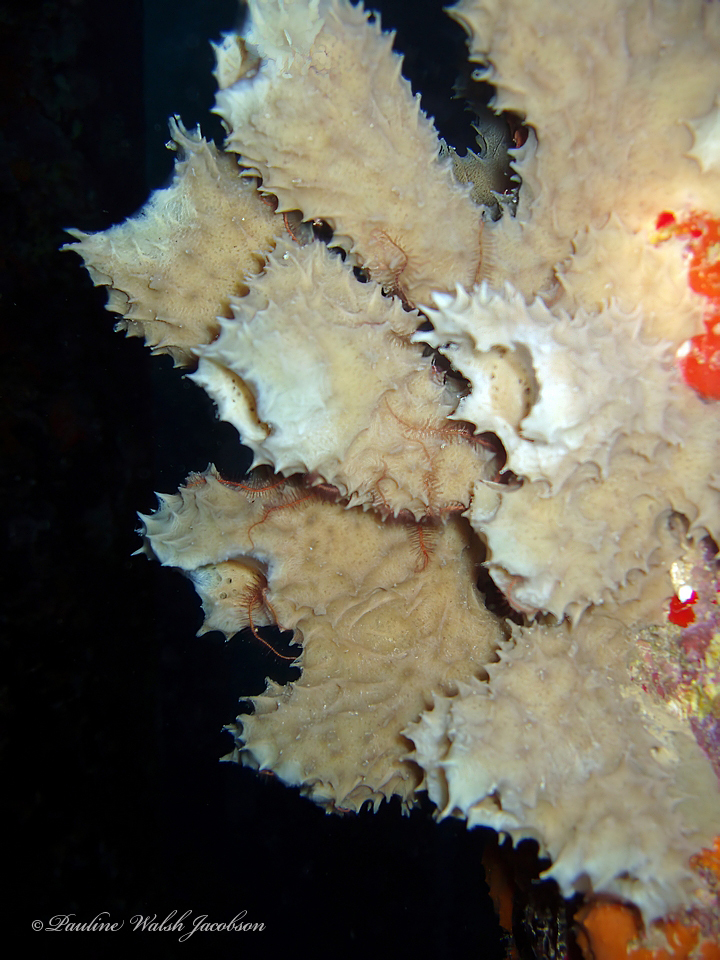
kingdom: Animalia
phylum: Porifera
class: Demospongiae
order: Haplosclerida
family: Callyspongiidae
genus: Callyspongia
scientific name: Callyspongia aculeata
